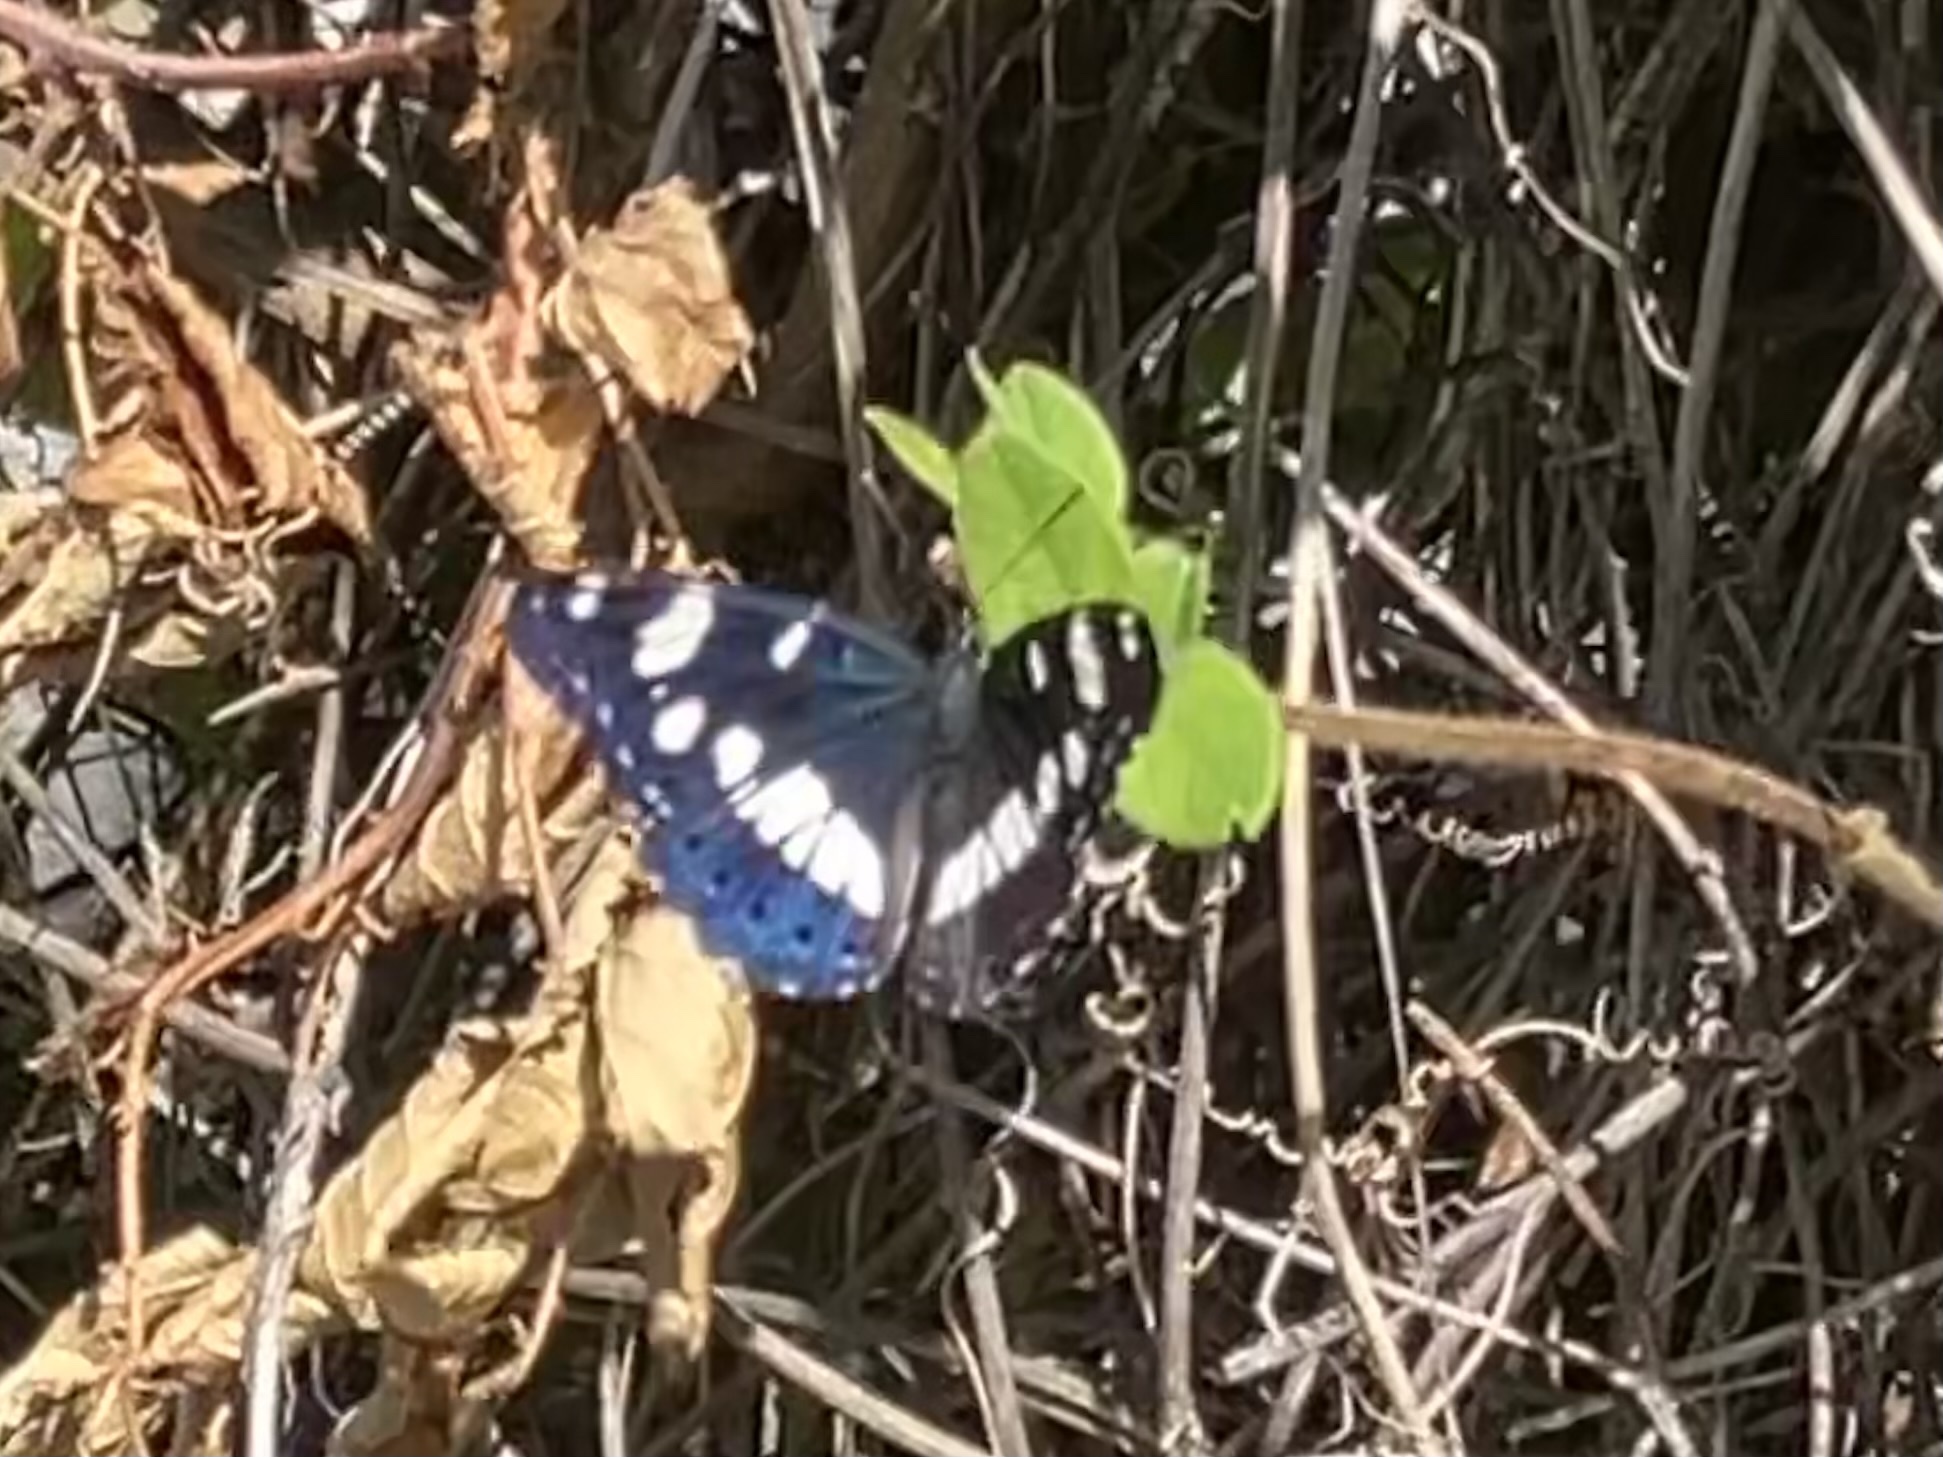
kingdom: Animalia
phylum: Arthropoda
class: Insecta
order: Lepidoptera
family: Nymphalidae
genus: Limenitis
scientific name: Limenitis reducta
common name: Southern white admiral
